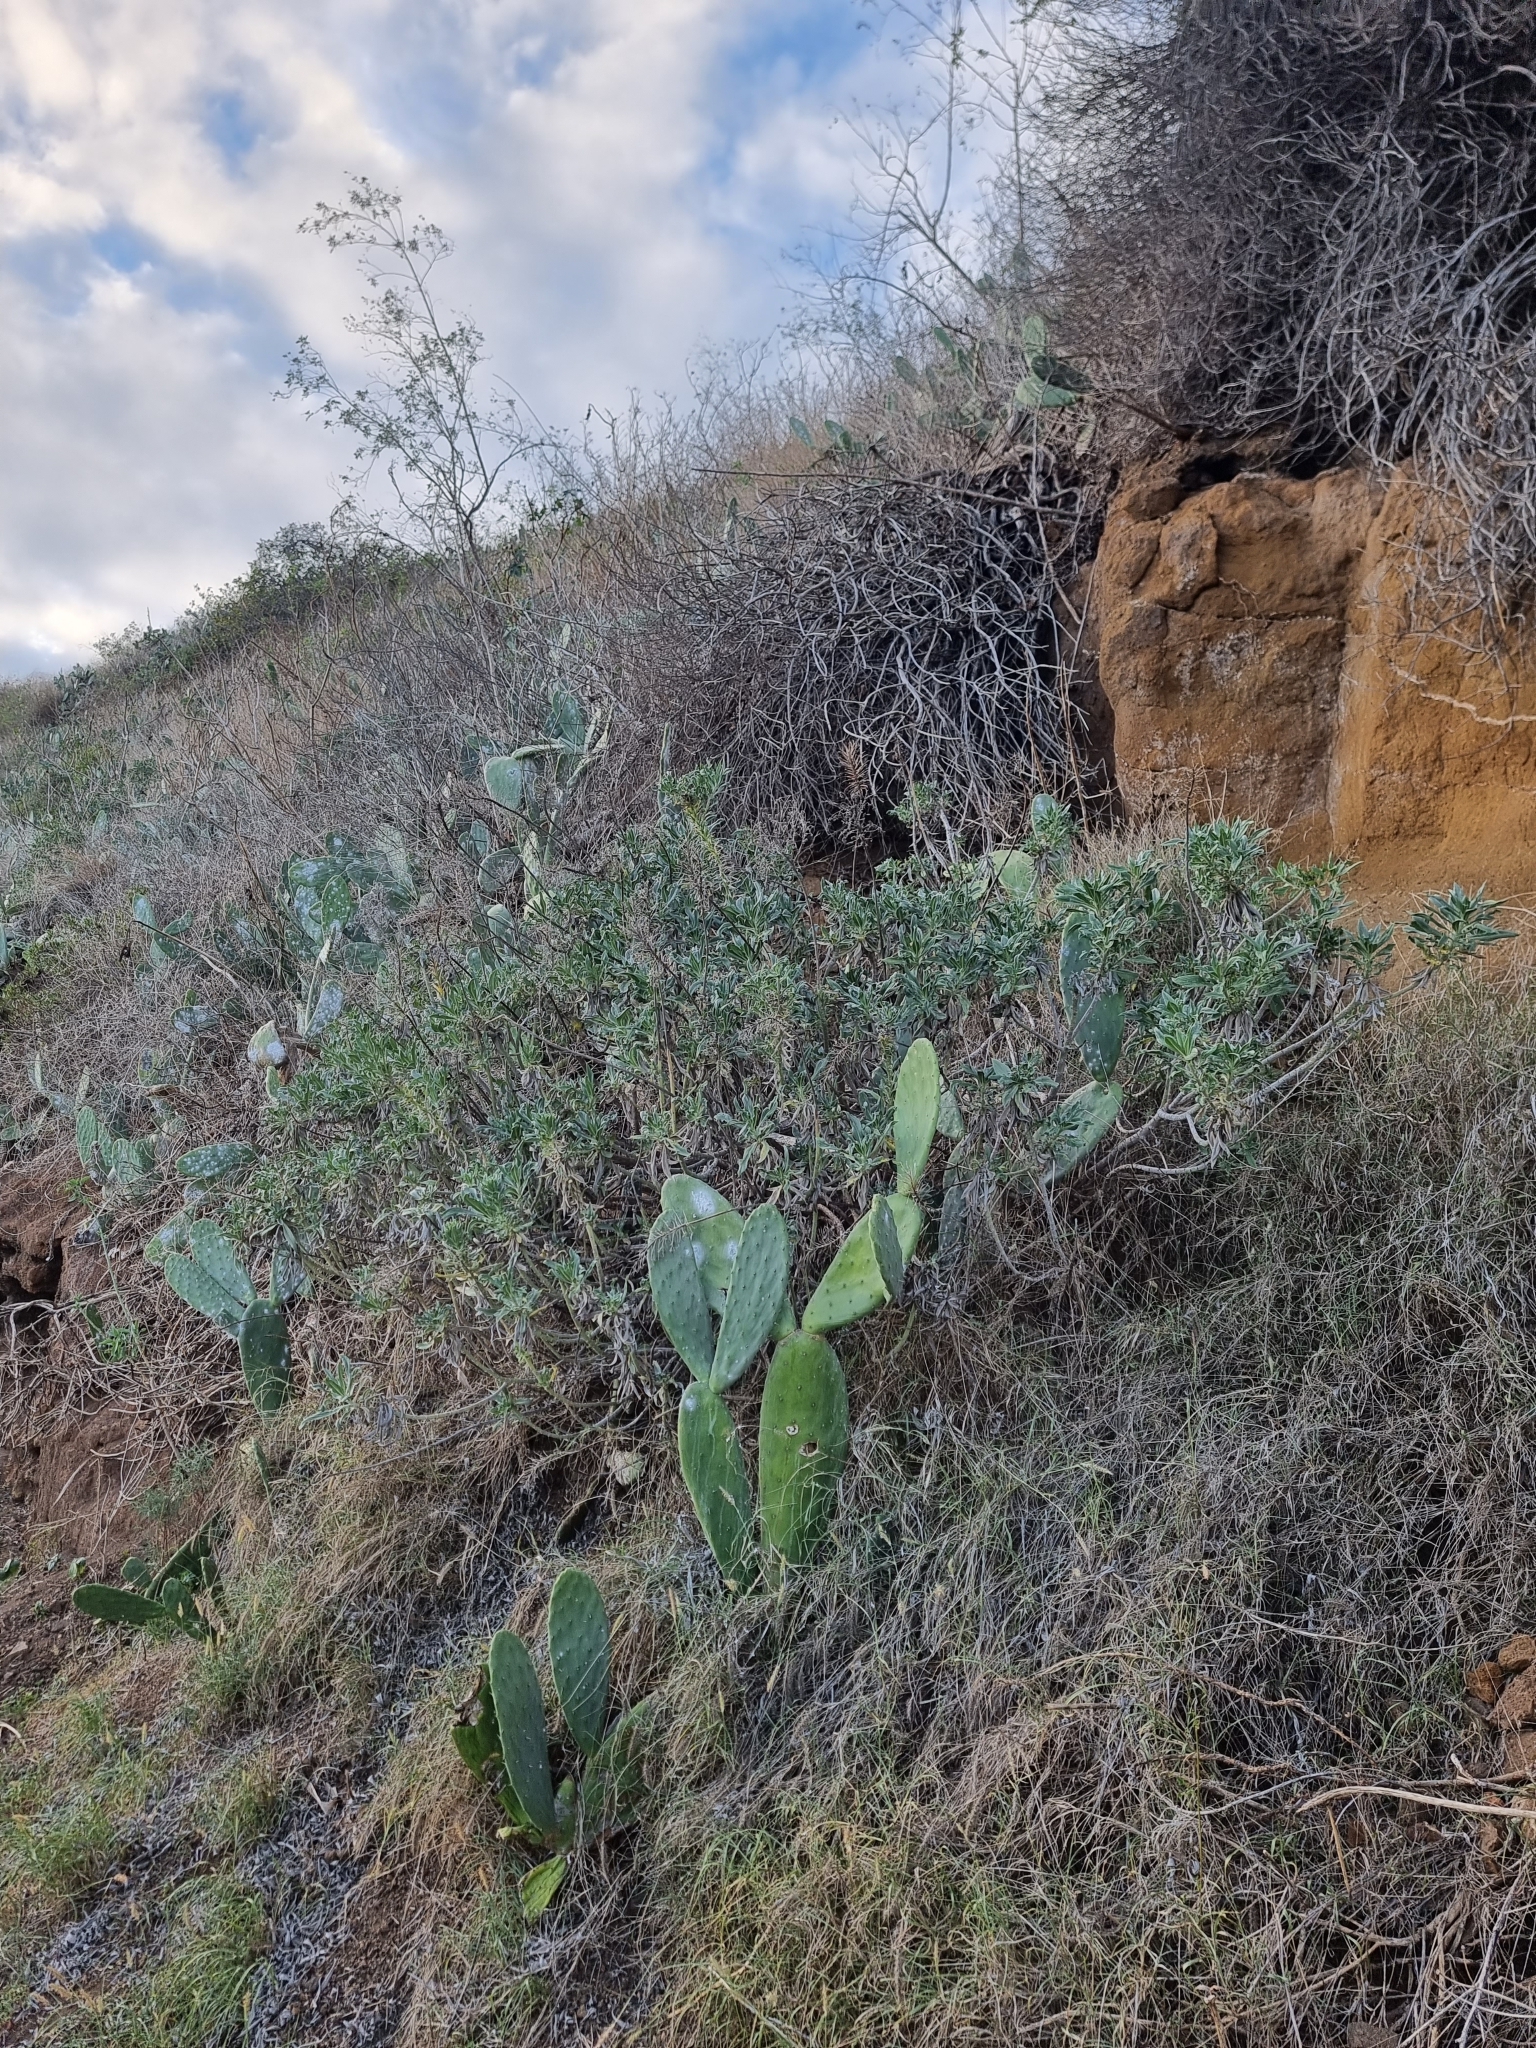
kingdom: Plantae
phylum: Tracheophyta
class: Magnoliopsida
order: Boraginales
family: Boraginaceae
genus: Echium
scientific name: Echium nervosum
